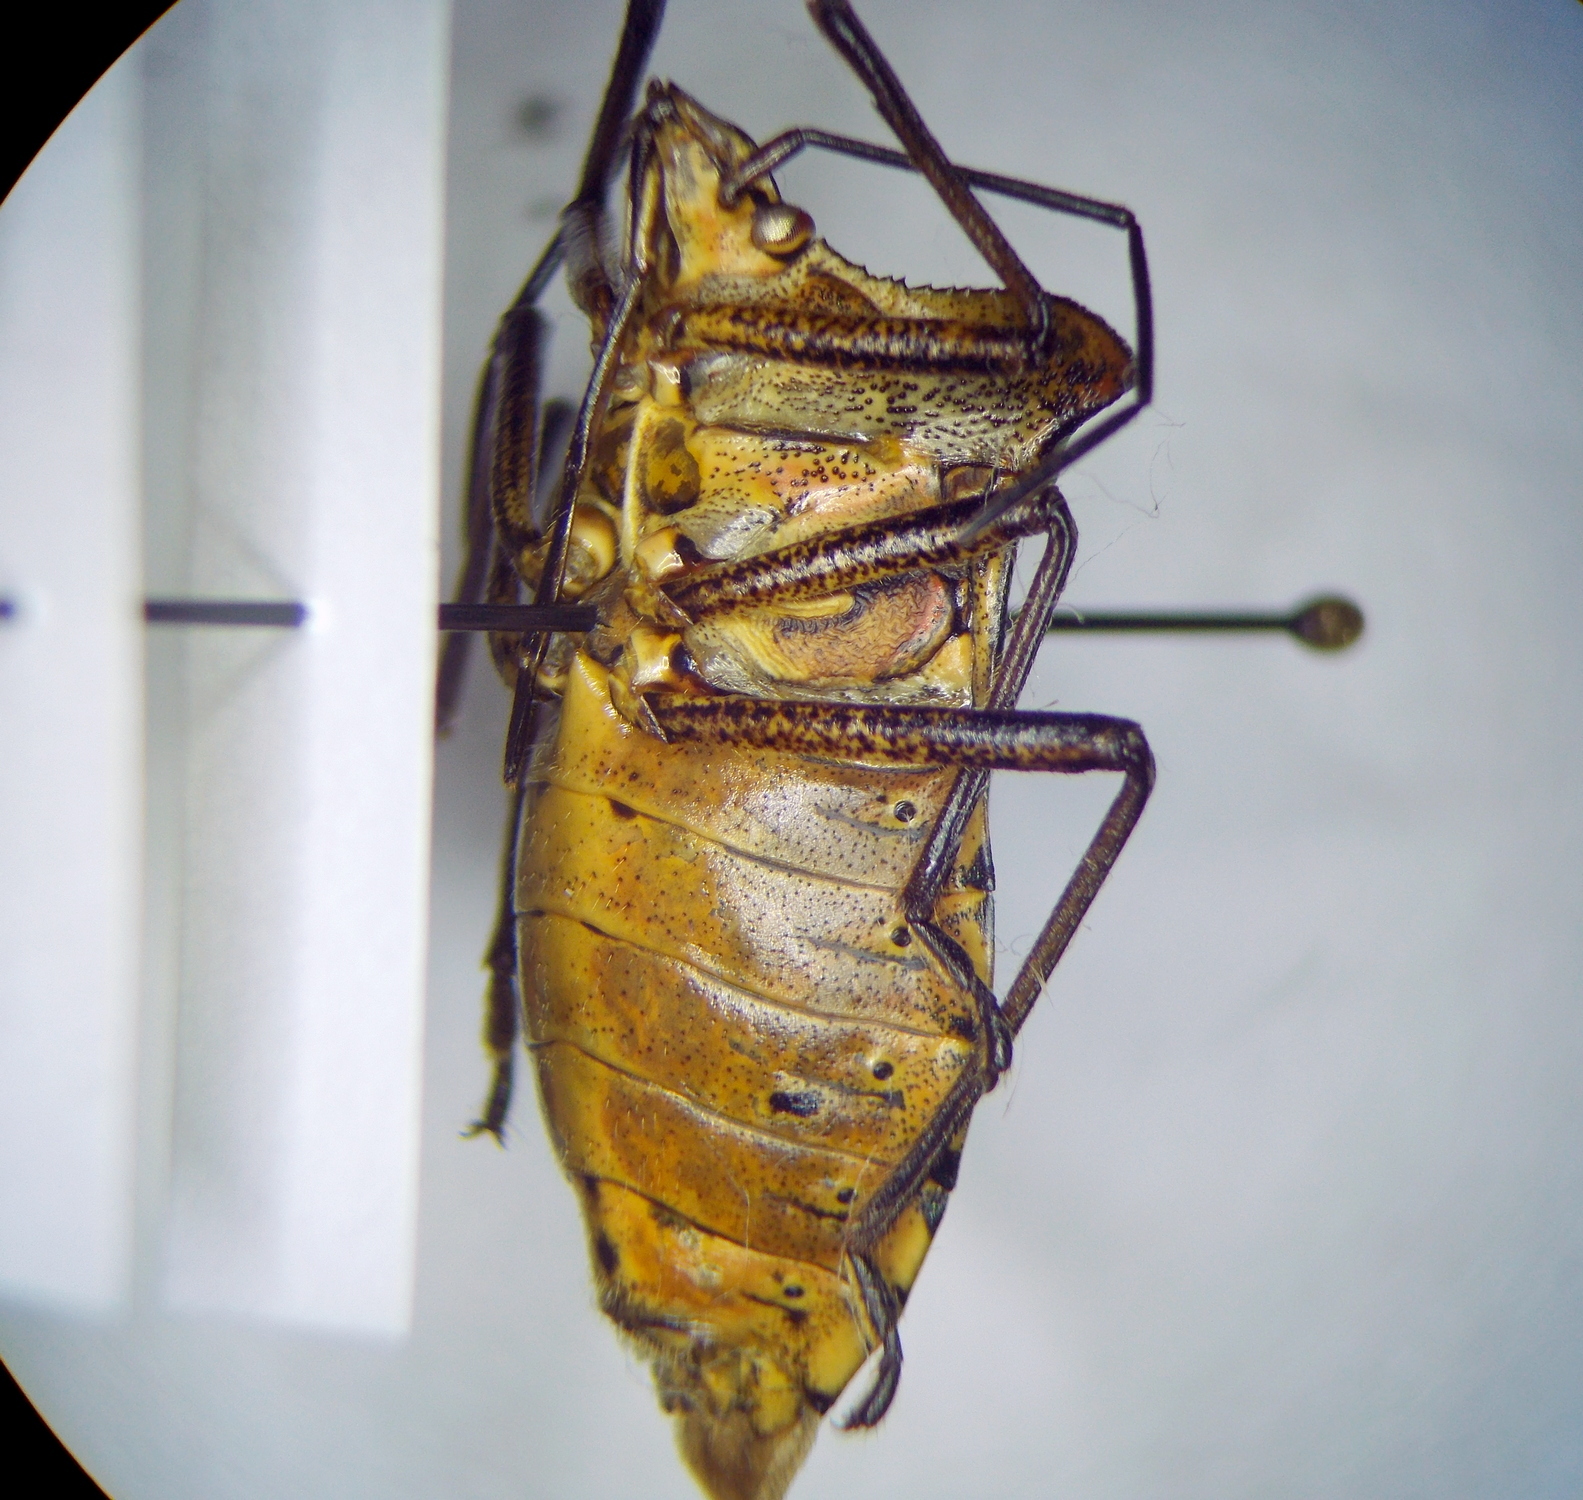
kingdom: Animalia
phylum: Arthropoda
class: Insecta
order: Hemiptera
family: Pentatomidae
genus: Pentatoma
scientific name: Pentatoma
